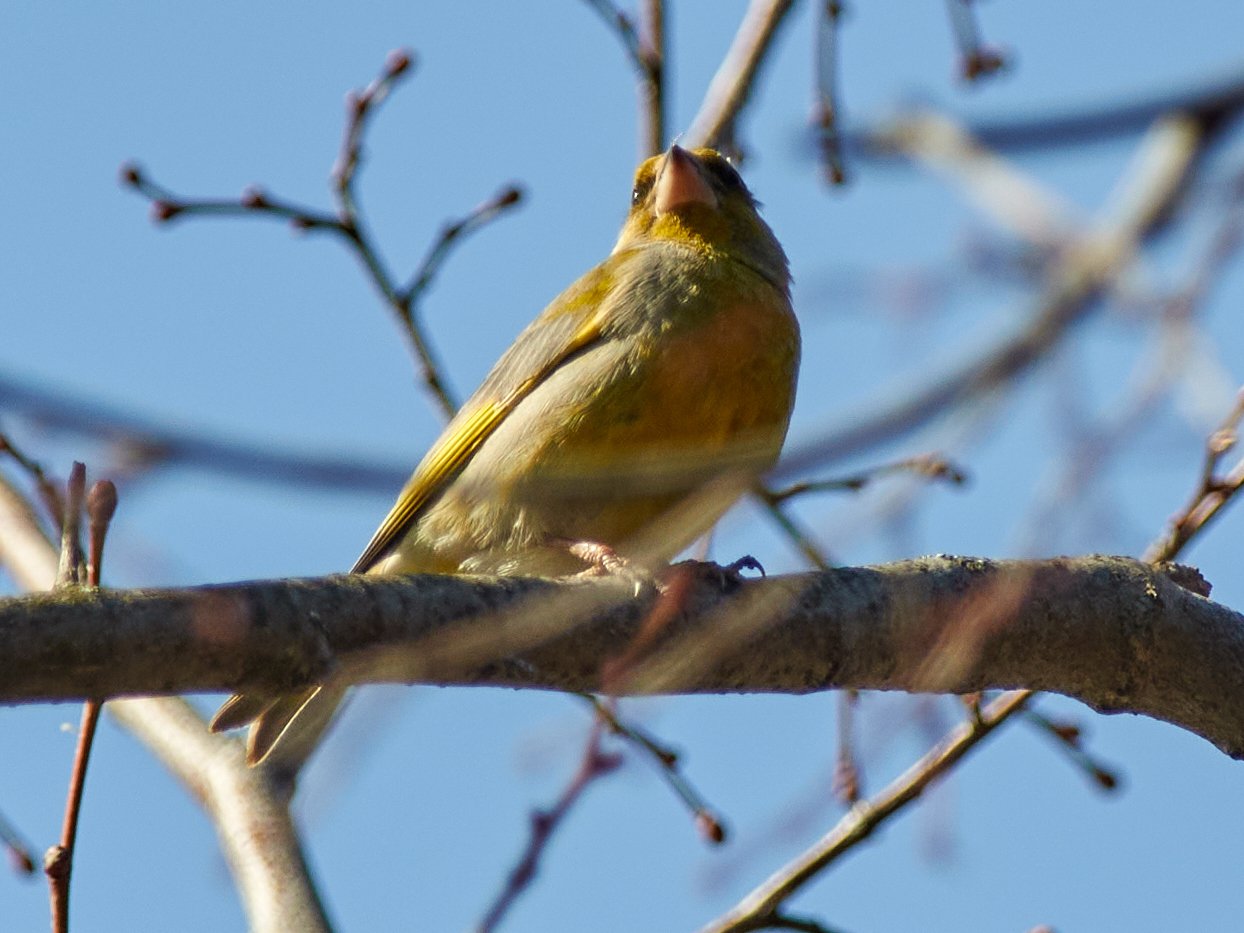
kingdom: Plantae
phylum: Tracheophyta
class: Liliopsida
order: Poales
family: Poaceae
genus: Chloris
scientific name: Chloris chloris
